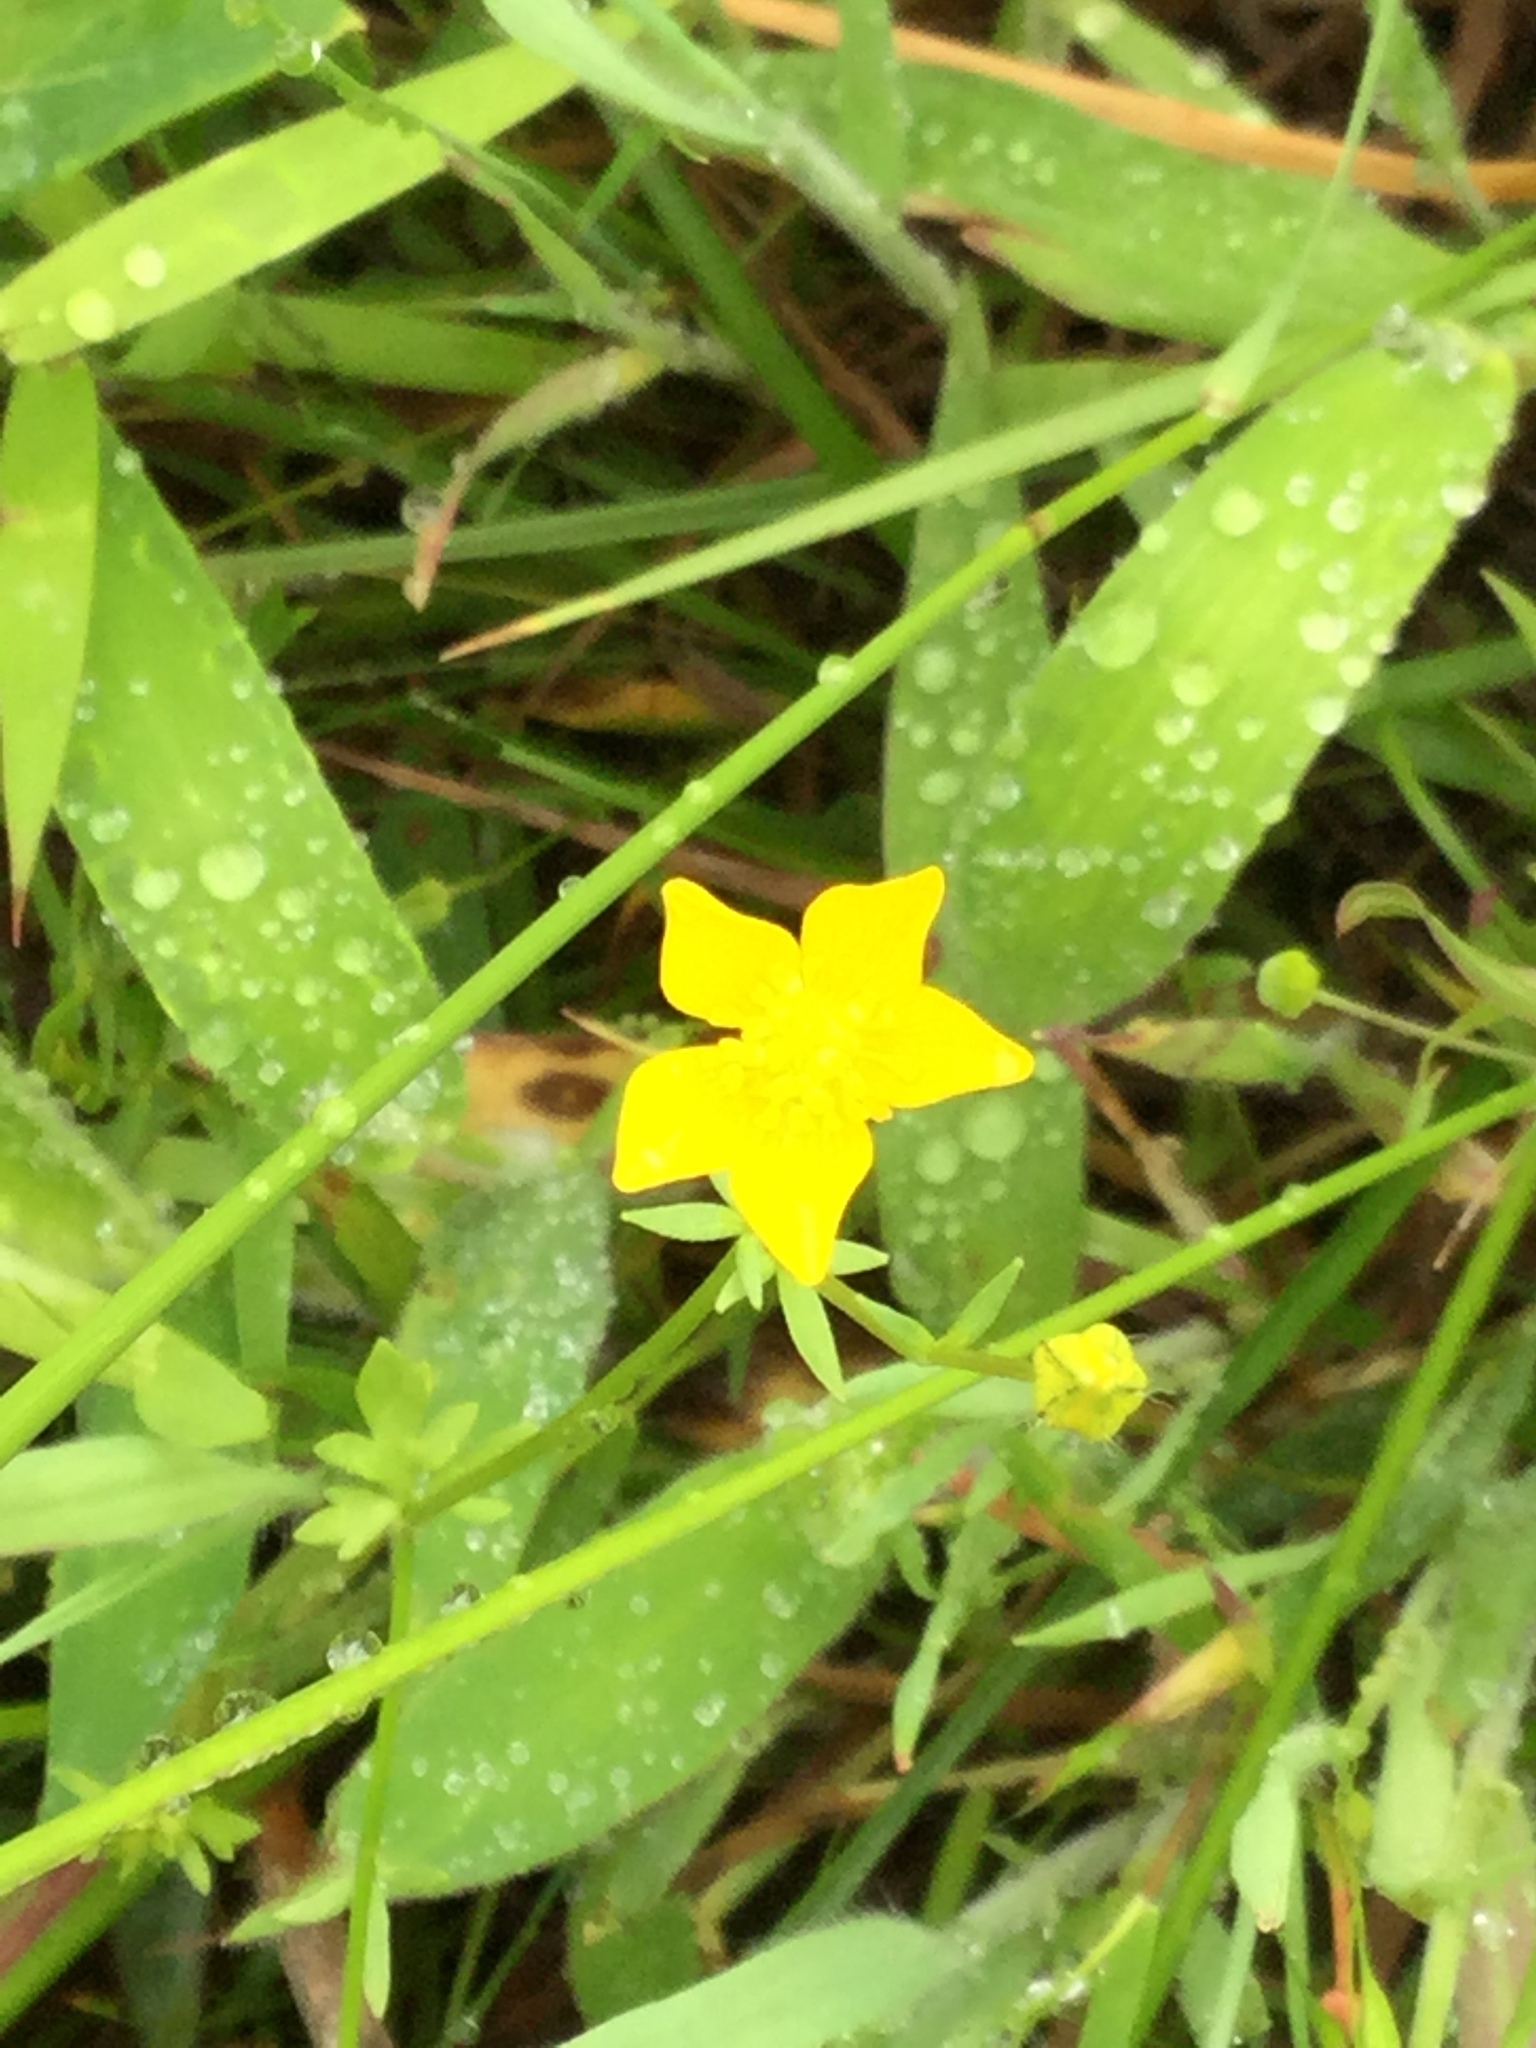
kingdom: Plantae
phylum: Tracheophyta
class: Magnoliopsida
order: Ranunculales
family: Ranunculaceae
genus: Ranunculus
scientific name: Ranunculus sardous
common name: Hairy buttercup
